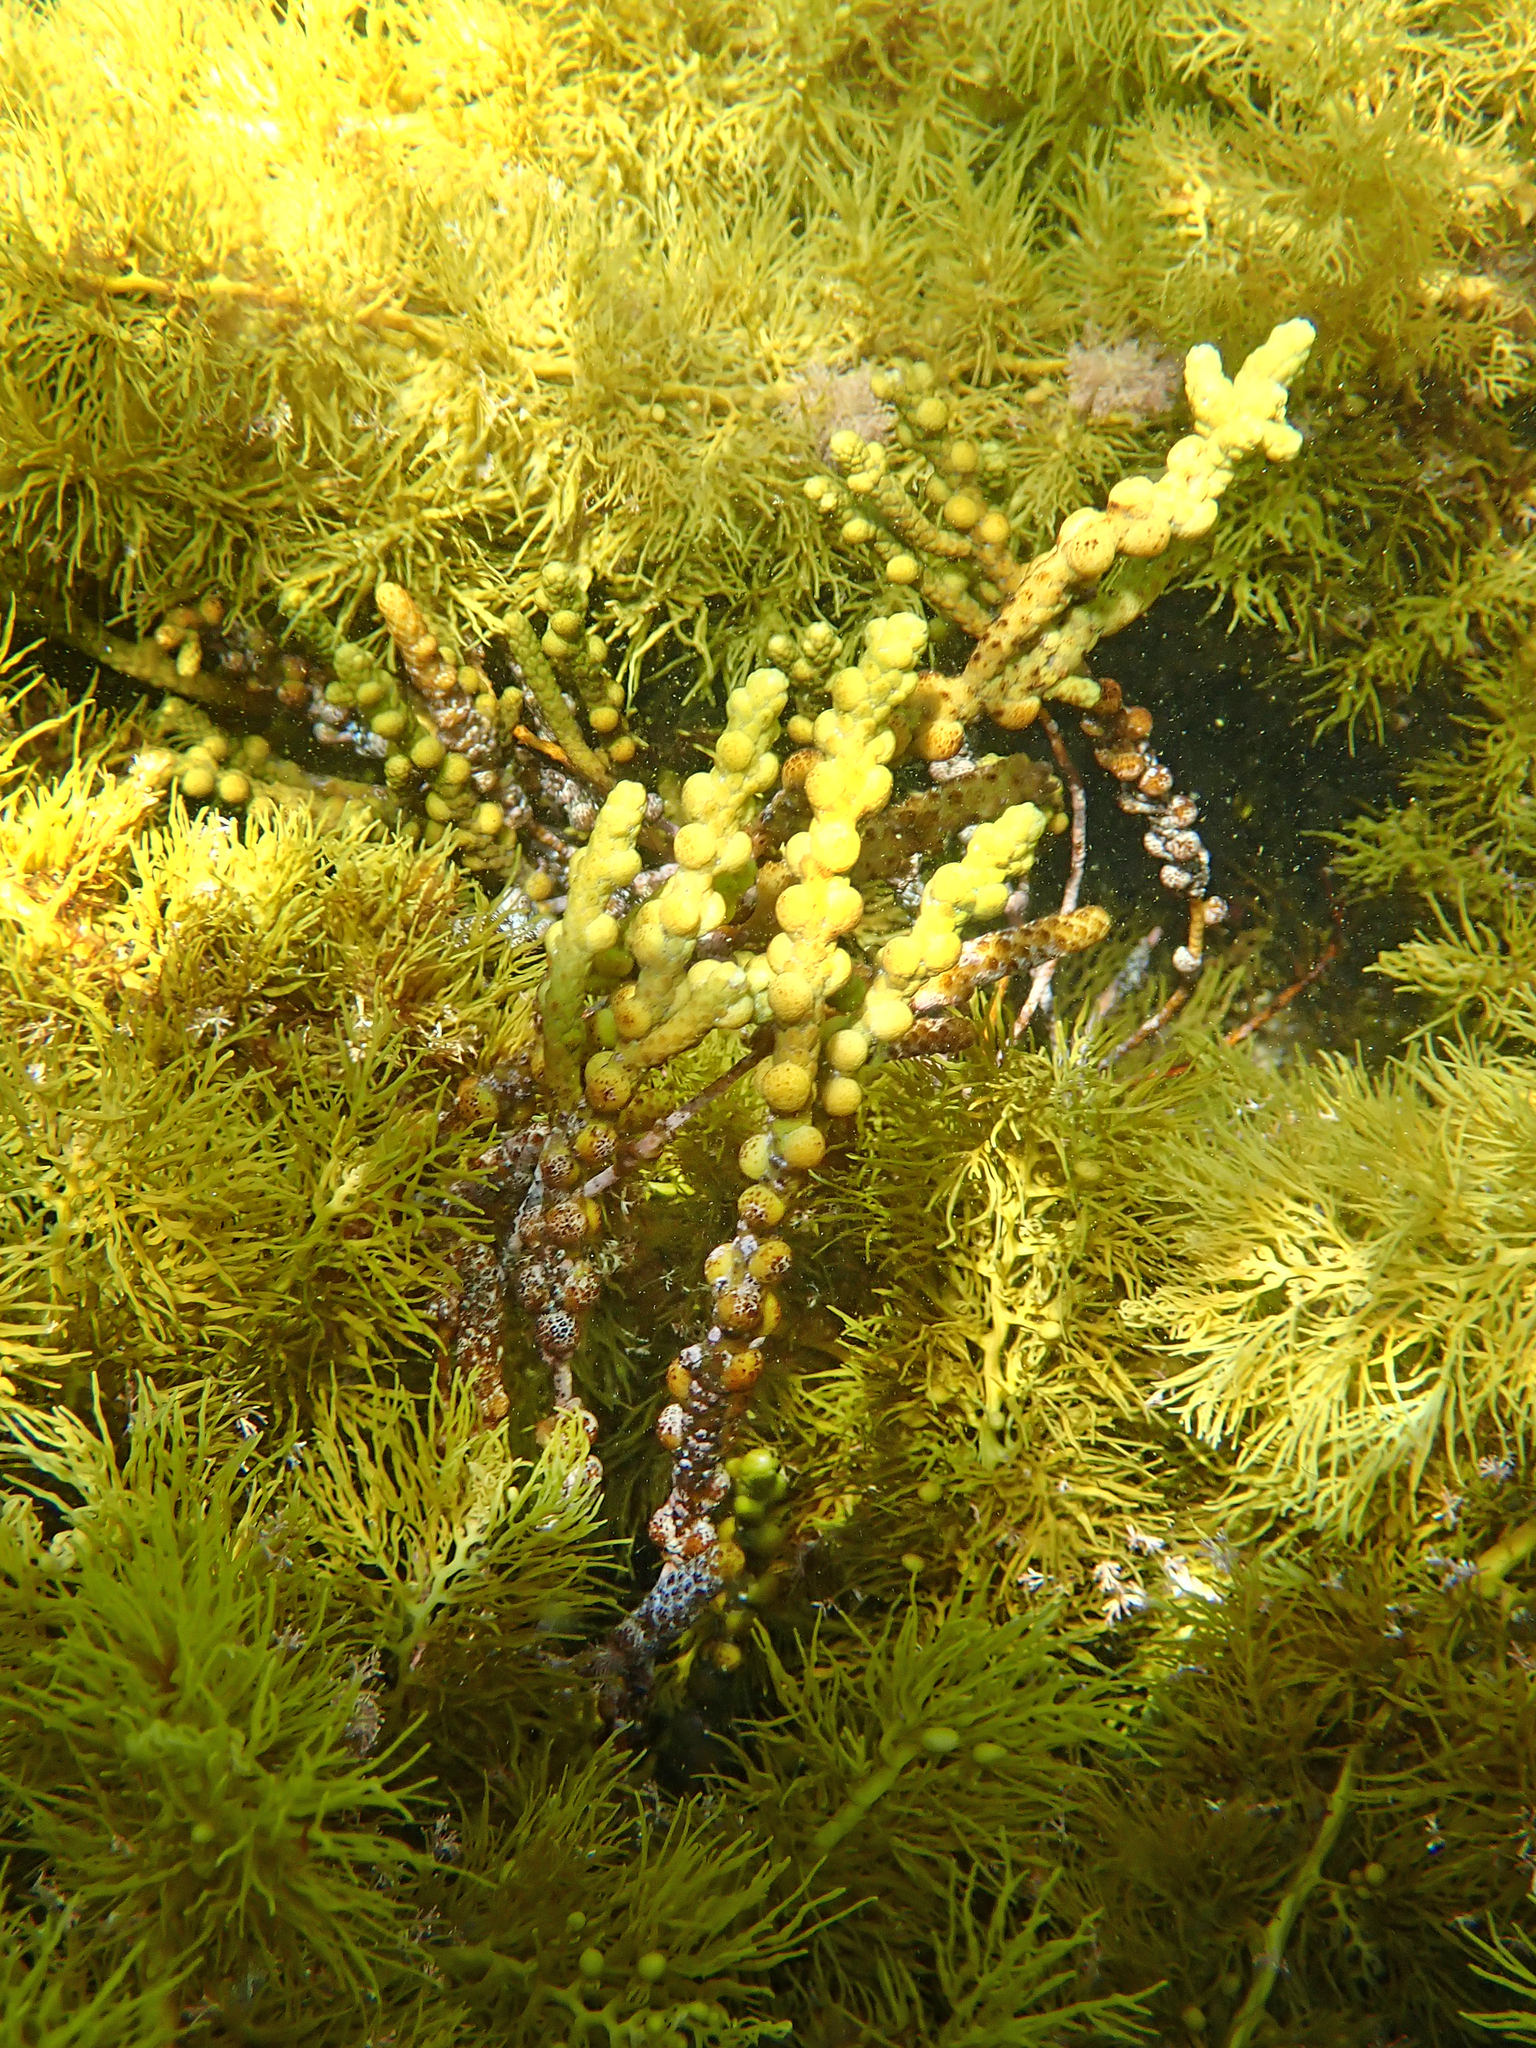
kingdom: Chromista
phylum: Ochrophyta
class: Phaeophyceae
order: Fucales
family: Sargassaceae
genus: Scaberia
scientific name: Scaberia agardhii
